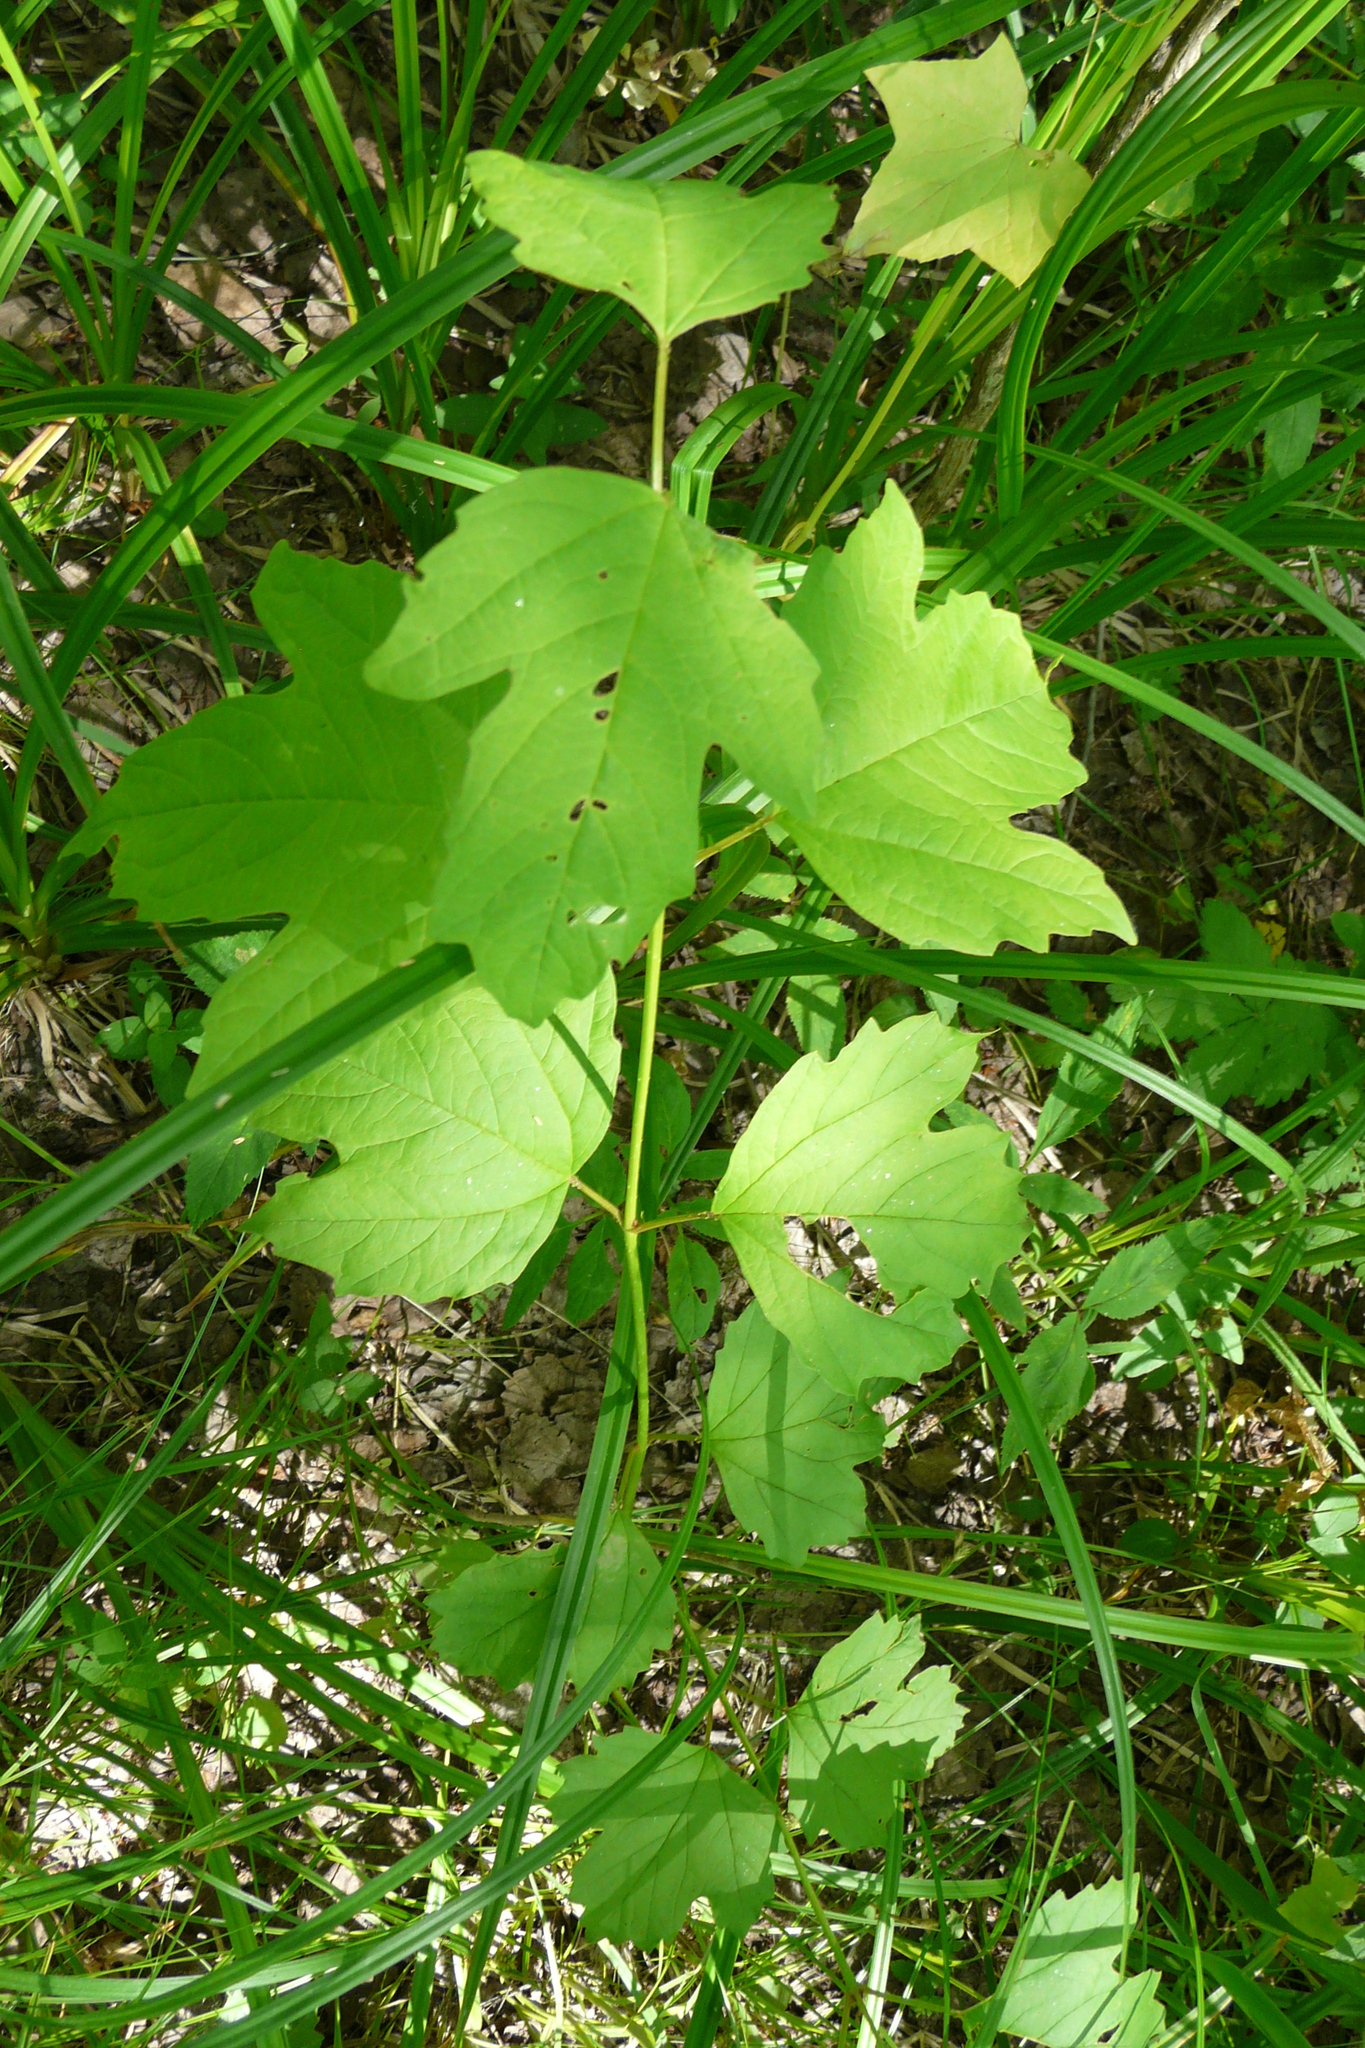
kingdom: Plantae
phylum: Tracheophyta
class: Magnoliopsida
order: Dipsacales
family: Viburnaceae
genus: Viburnum
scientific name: Viburnum opulus
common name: Guelder-rose
